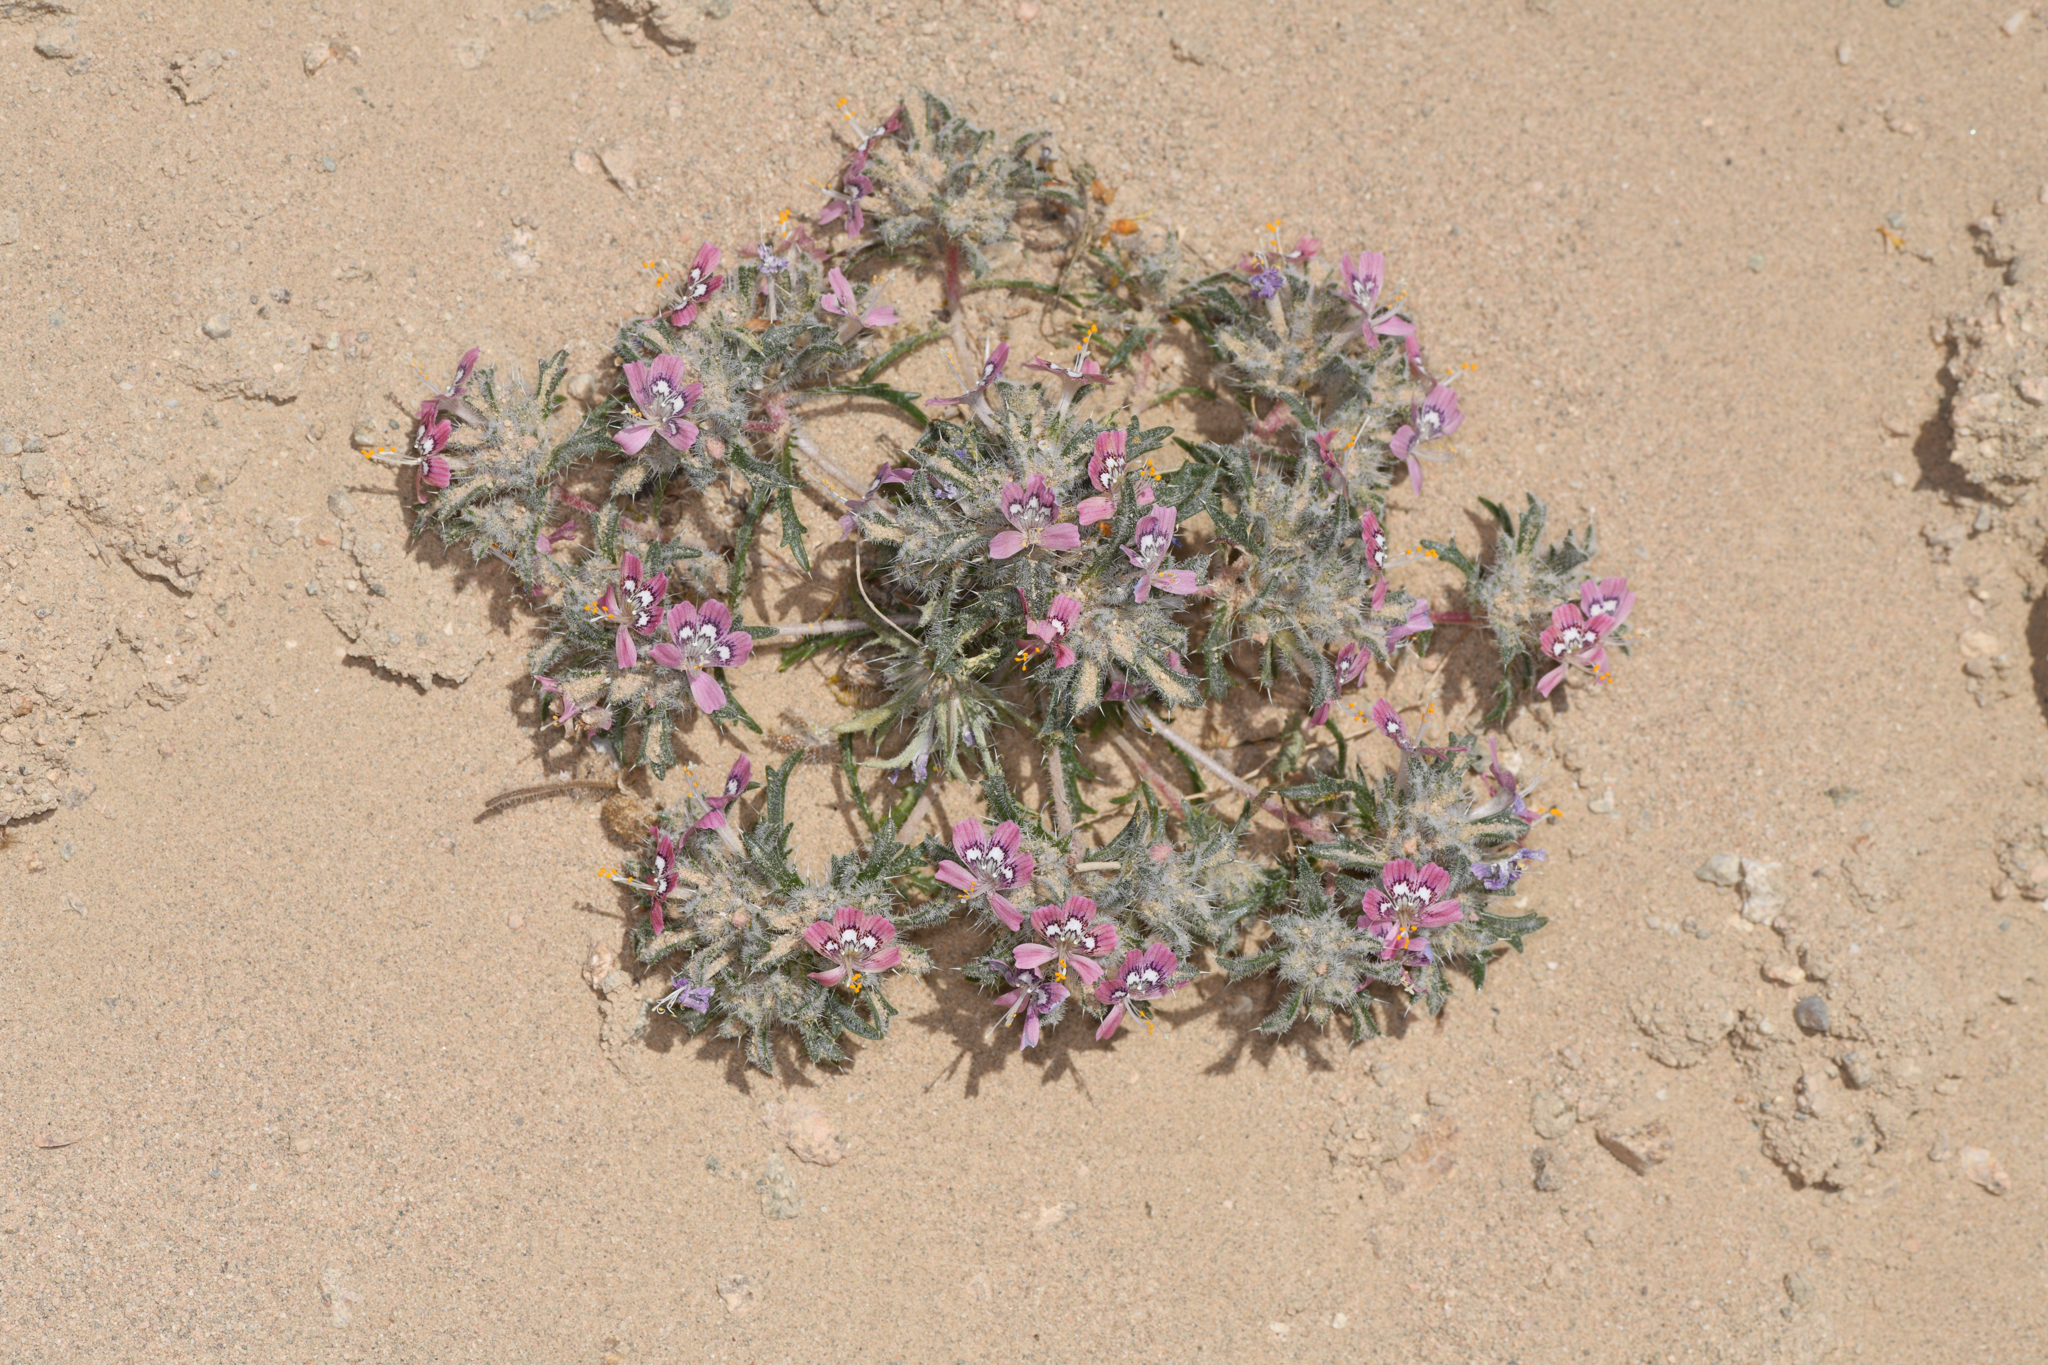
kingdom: Plantae
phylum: Tracheophyta
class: Magnoliopsida
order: Ericales
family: Polemoniaceae
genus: Loeseliastrum
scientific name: Loeseliastrum matthewsii
